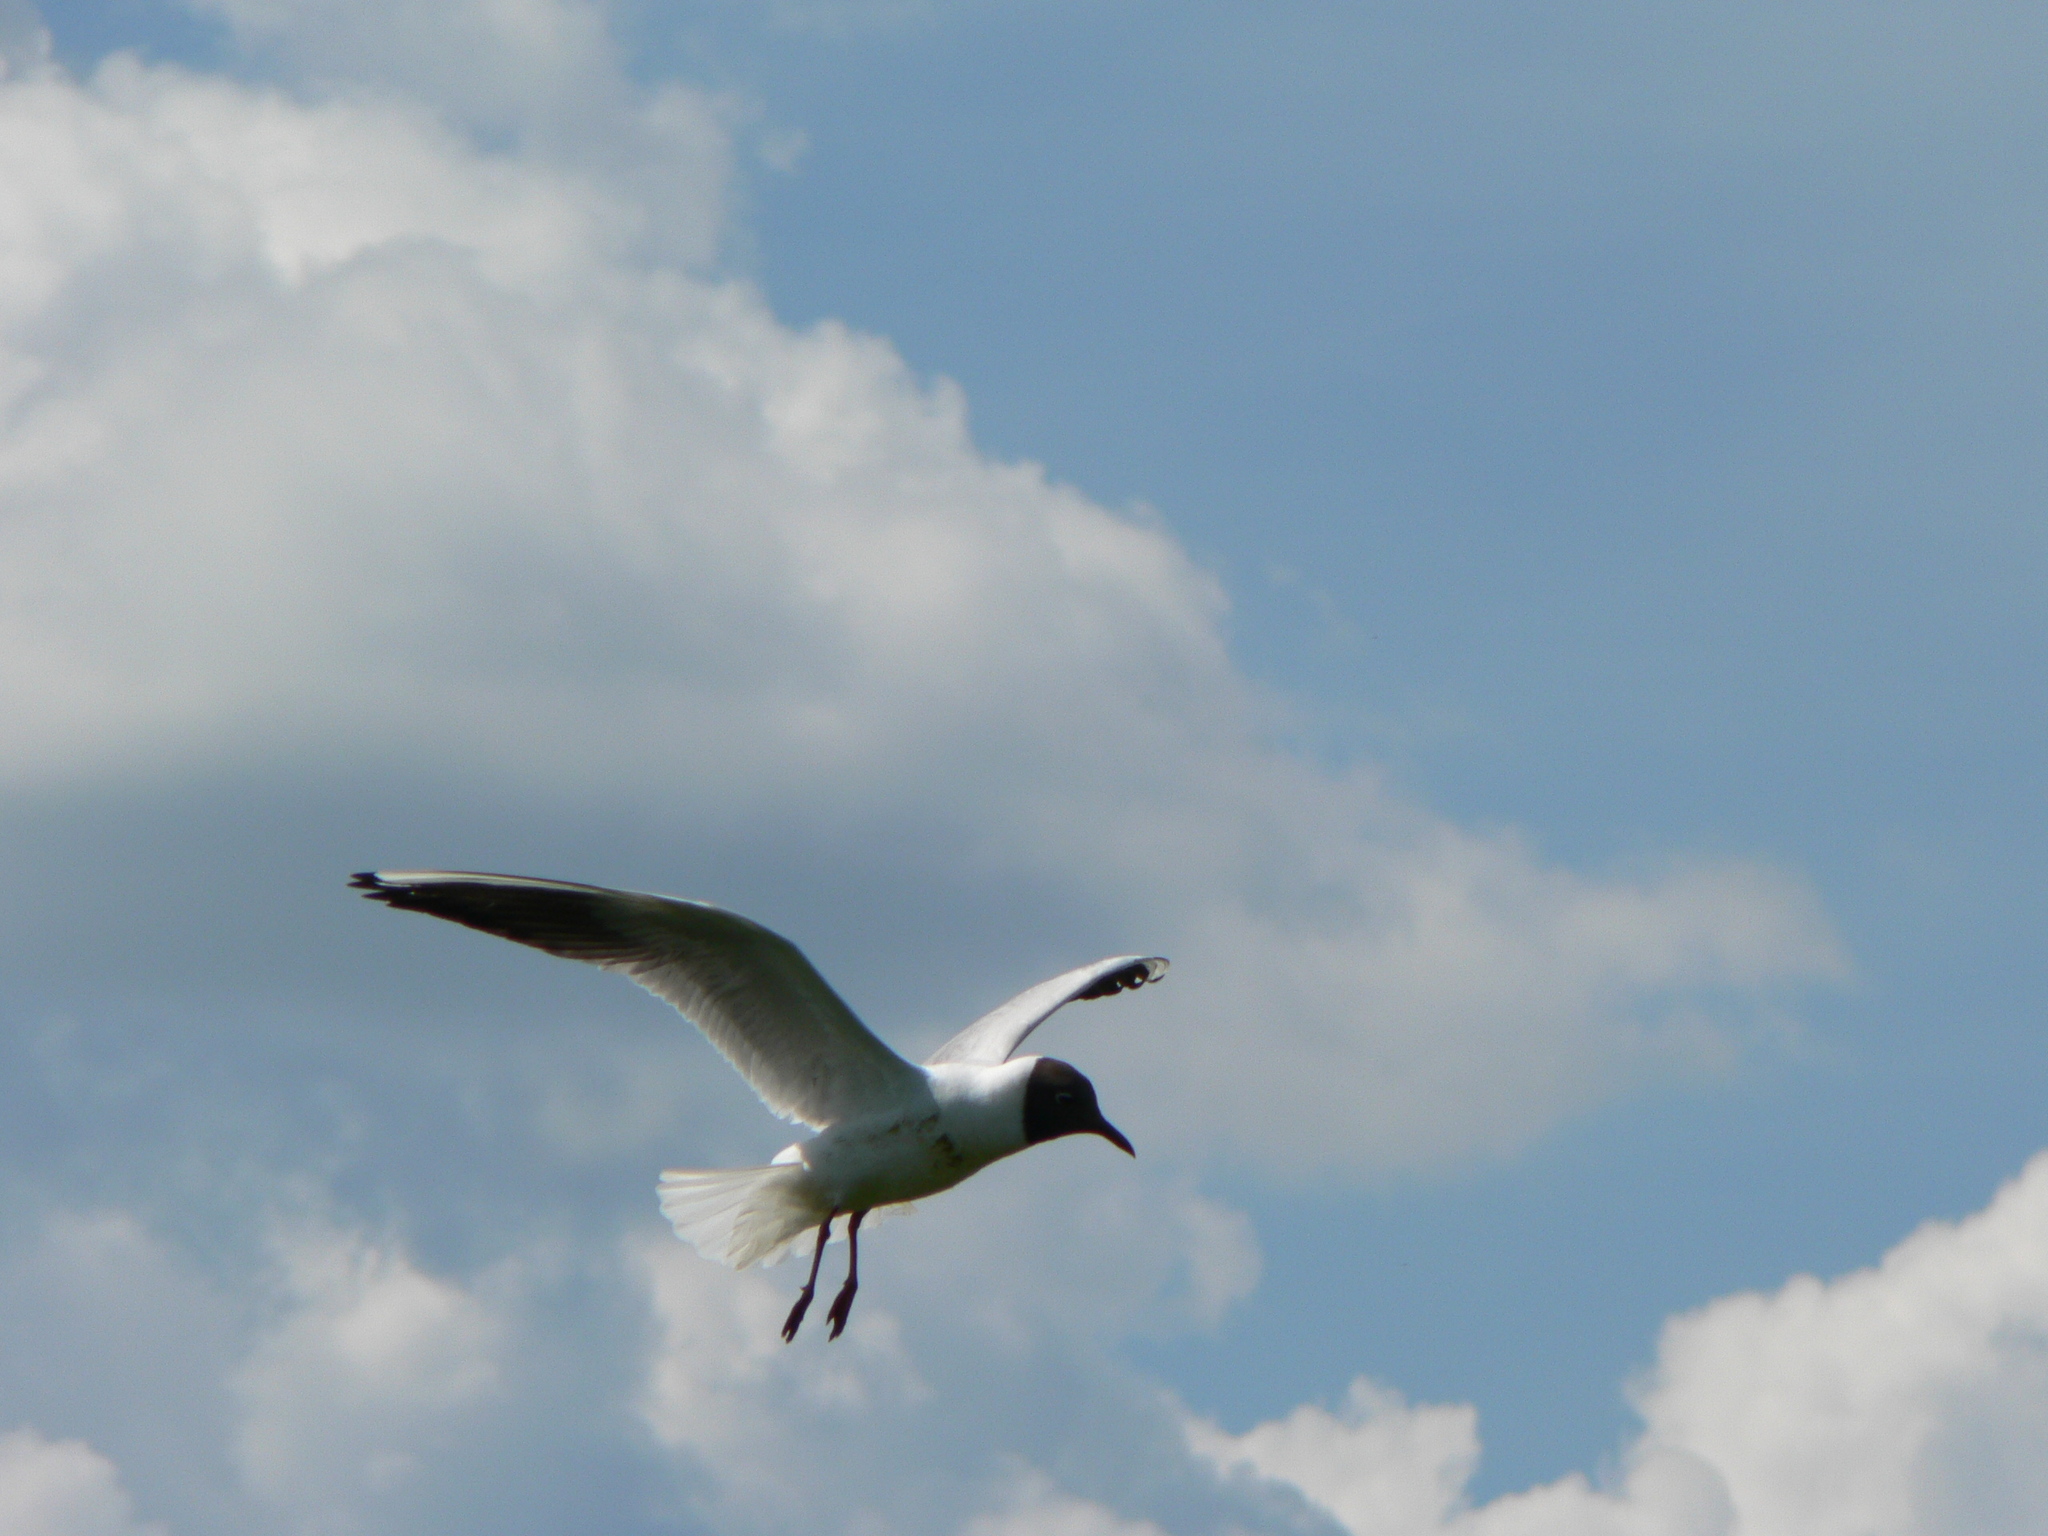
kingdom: Animalia
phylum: Chordata
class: Aves
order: Charadriiformes
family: Laridae
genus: Chroicocephalus
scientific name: Chroicocephalus ridibundus
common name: Black-headed gull
